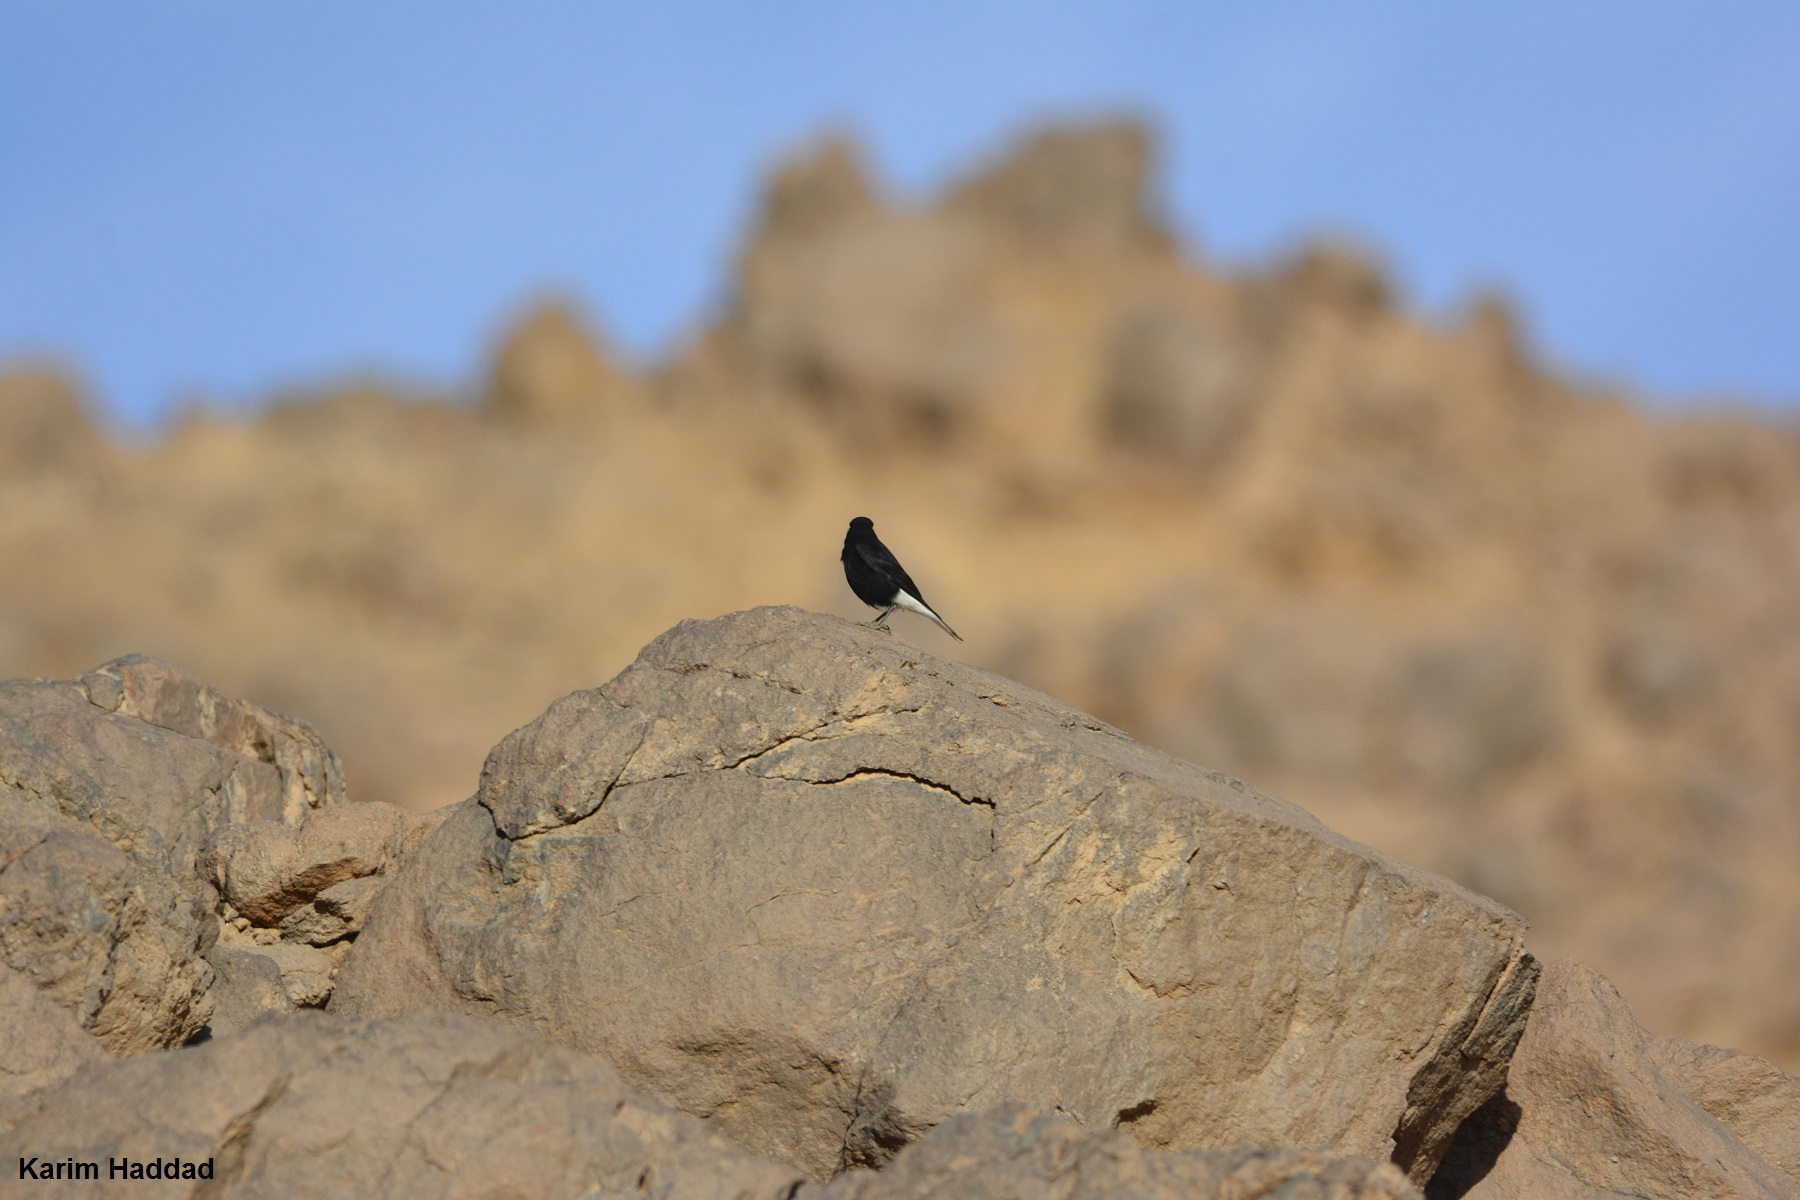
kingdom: Animalia
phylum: Chordata
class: Aves
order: Passeriformes
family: Muscicapidae
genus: Oenanthe
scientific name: Oenanthe leucopyga
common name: White-crowned wheatear
